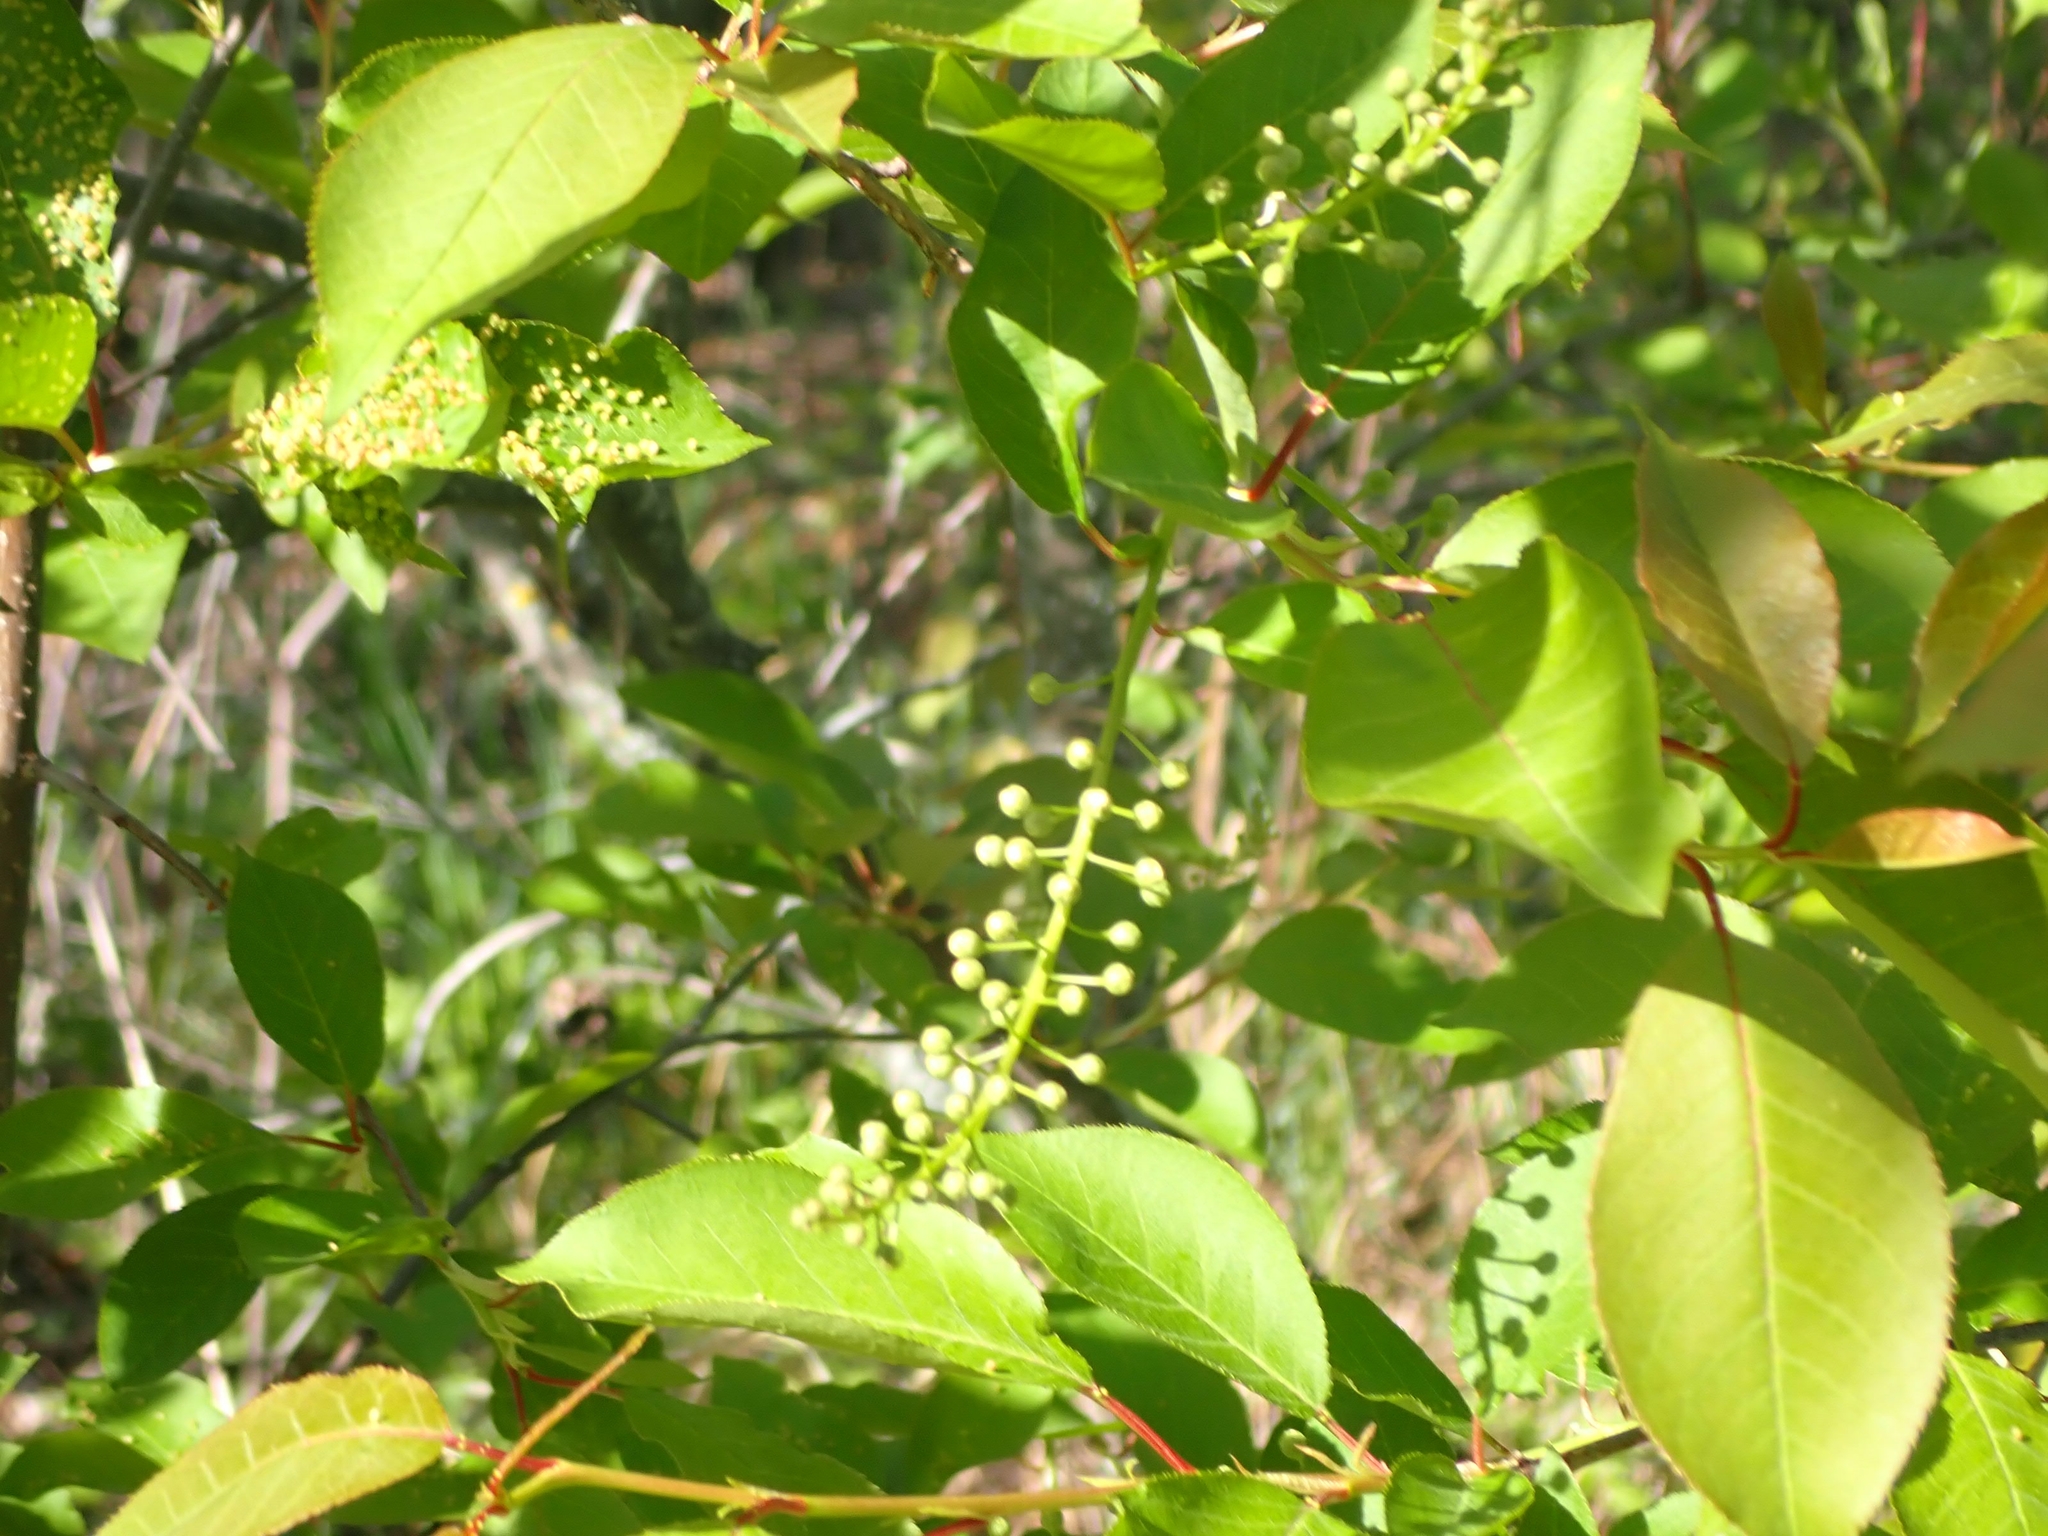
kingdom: Plantae
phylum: Tracheophyta
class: Magnoliopsida
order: Rosales
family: Rosaceae
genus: Prunus
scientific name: Prunus virginiana
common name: Chokecherry
